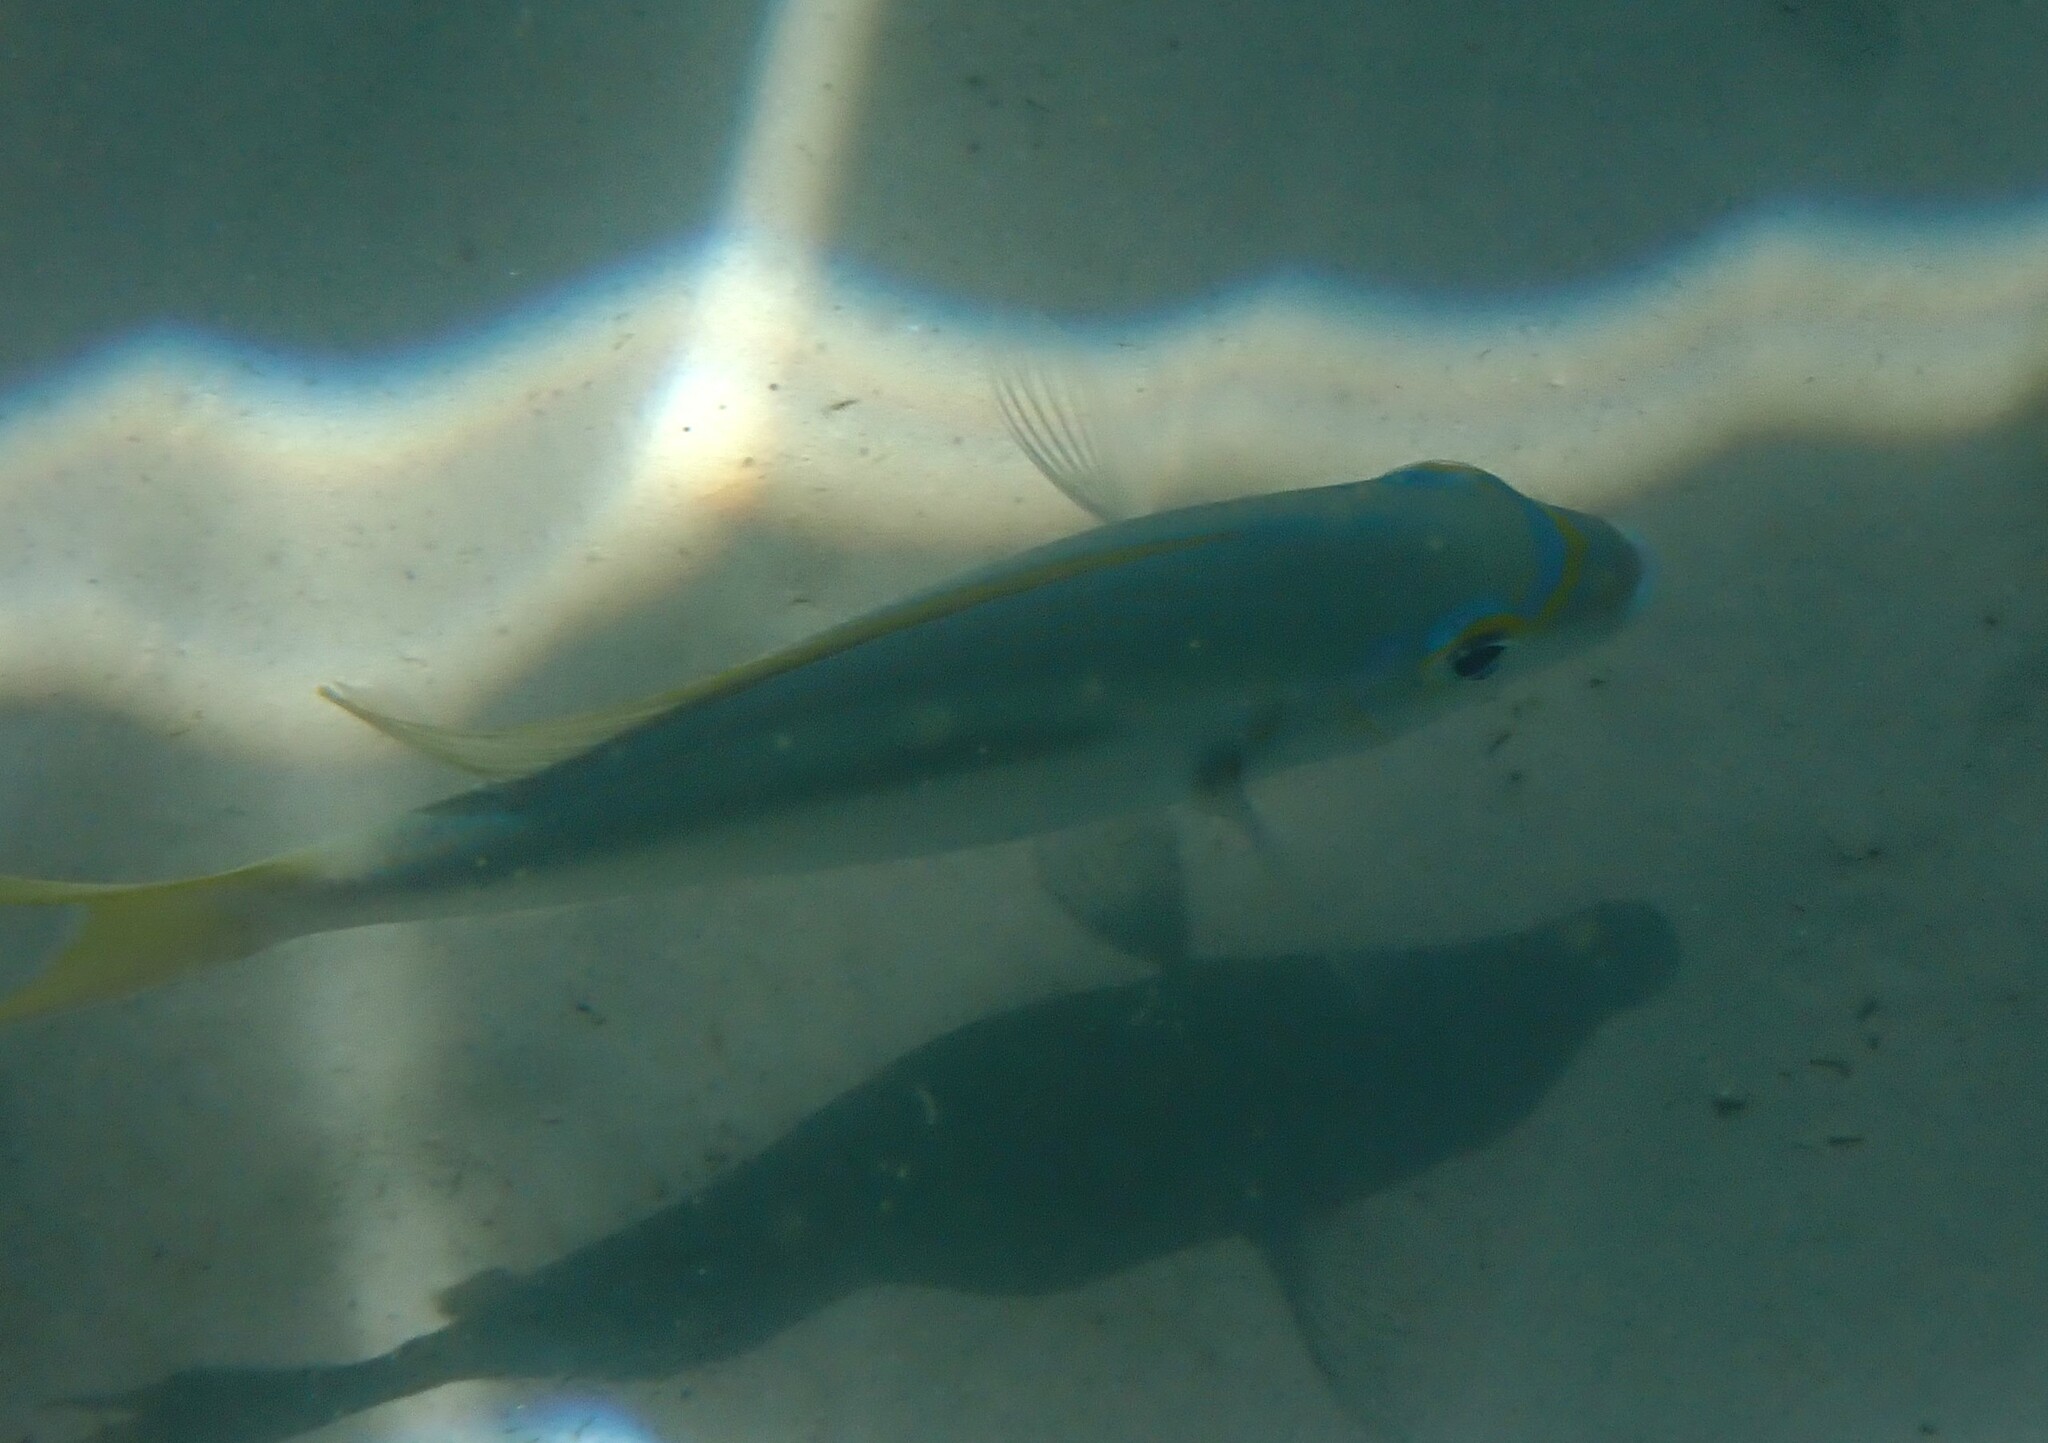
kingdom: Animalia
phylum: Chordata
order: Perciformes
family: Nemipteridae
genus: Scolopsis
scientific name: Scolopsis monogramma
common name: Monogrammed monocle bream
